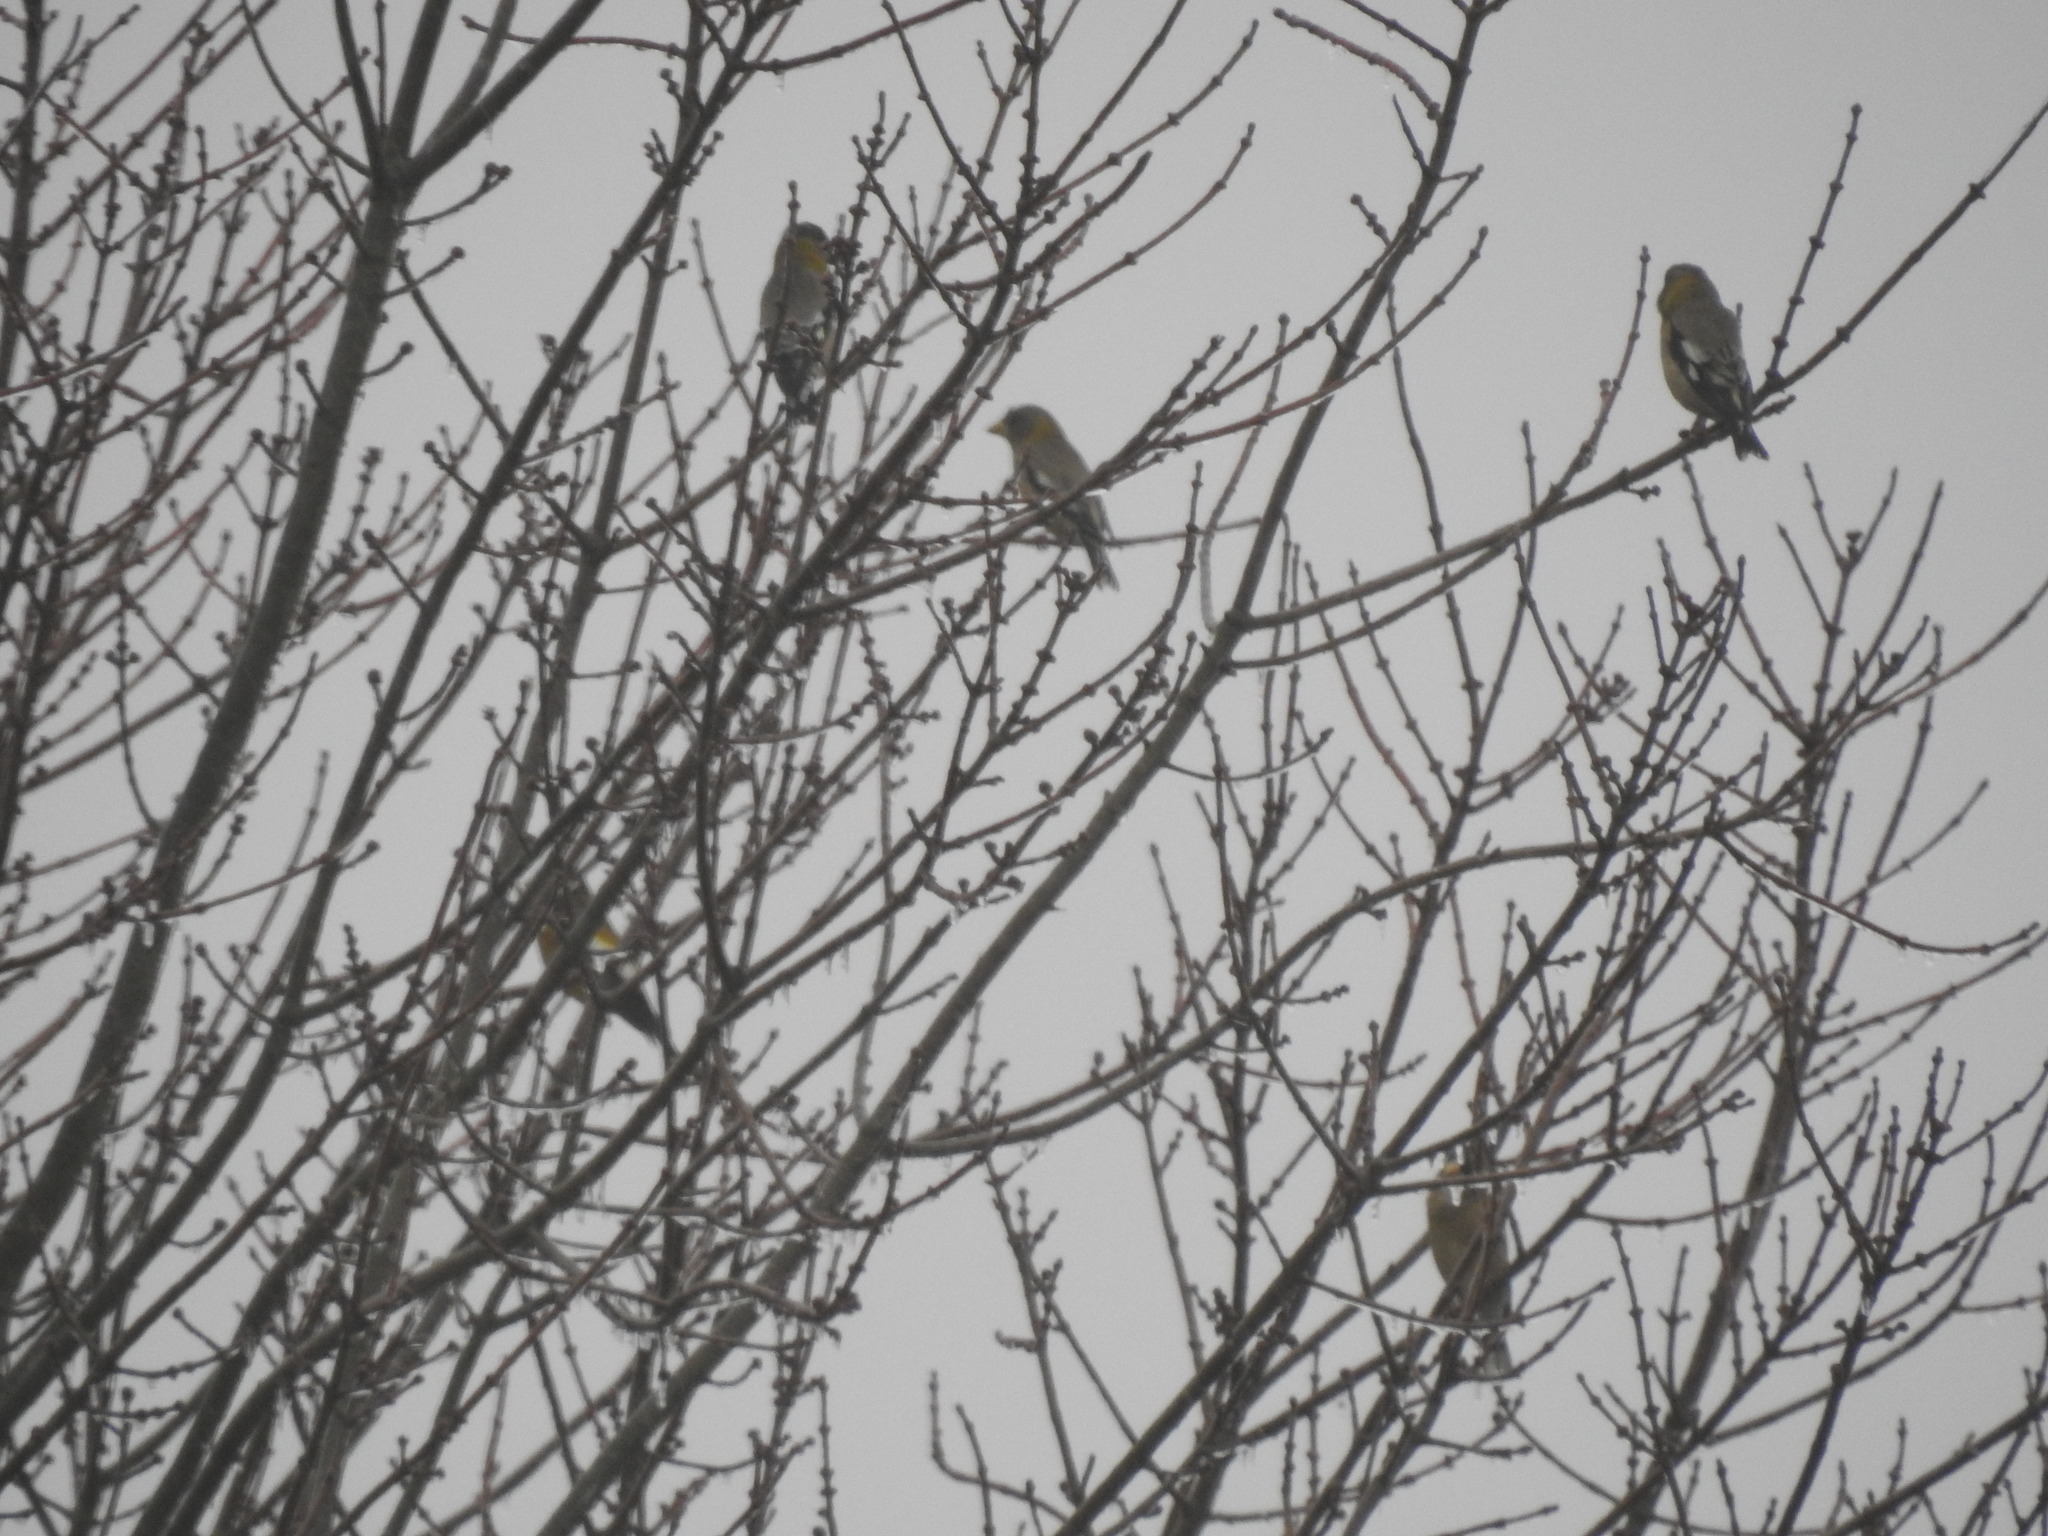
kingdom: Animalia
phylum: Chordata
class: Aves
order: Passeriformes
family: Fringillidae
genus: Hesperiphona
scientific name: Hesperiphona vespertina
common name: Evening grosbeak
